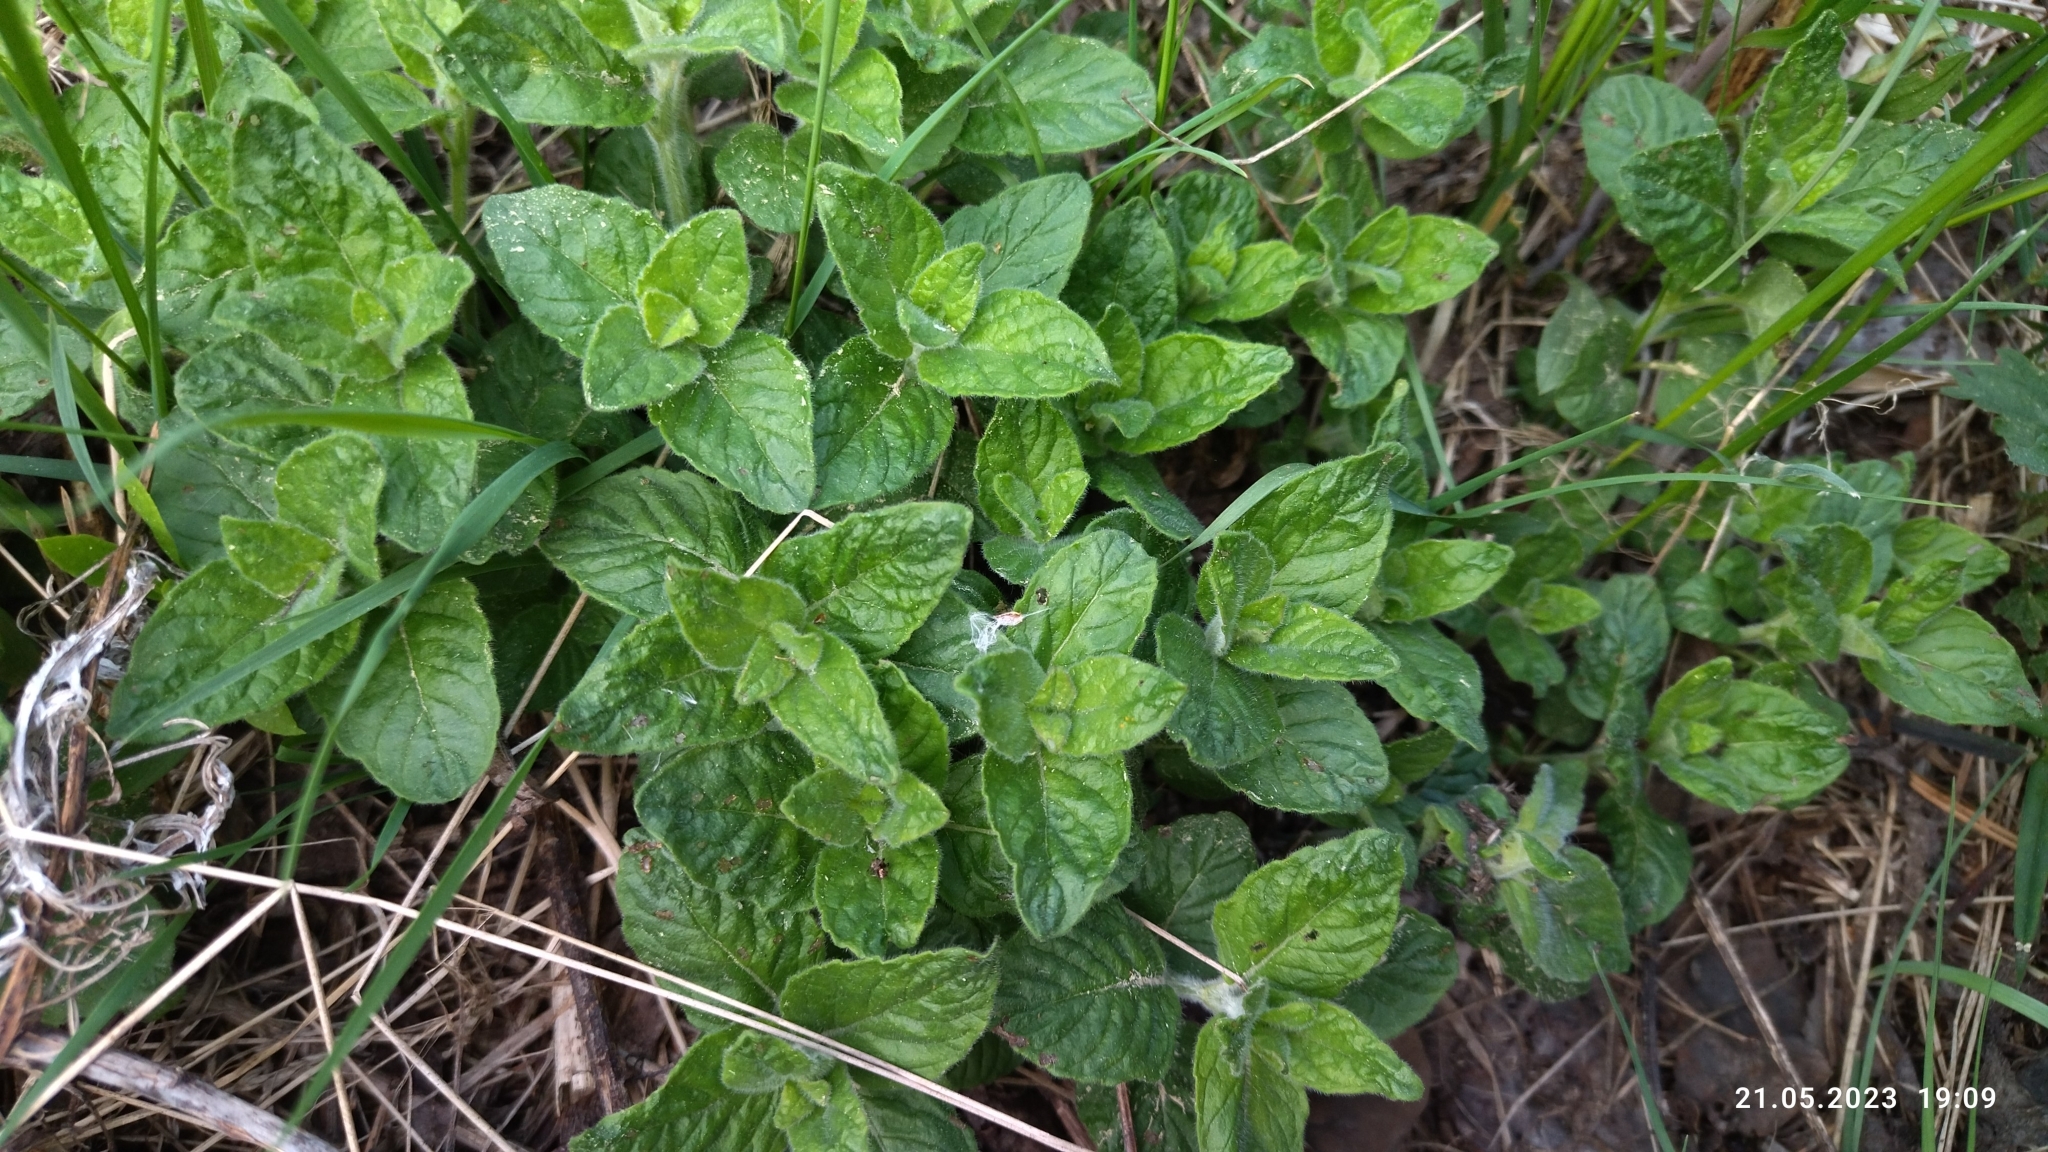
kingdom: Plantae
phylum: Tracheophyta
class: Magnoliopsida
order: Lamiales
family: Lamiaceae
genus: Clinopodium
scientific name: Clinopodium vulgare
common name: Wild basil
